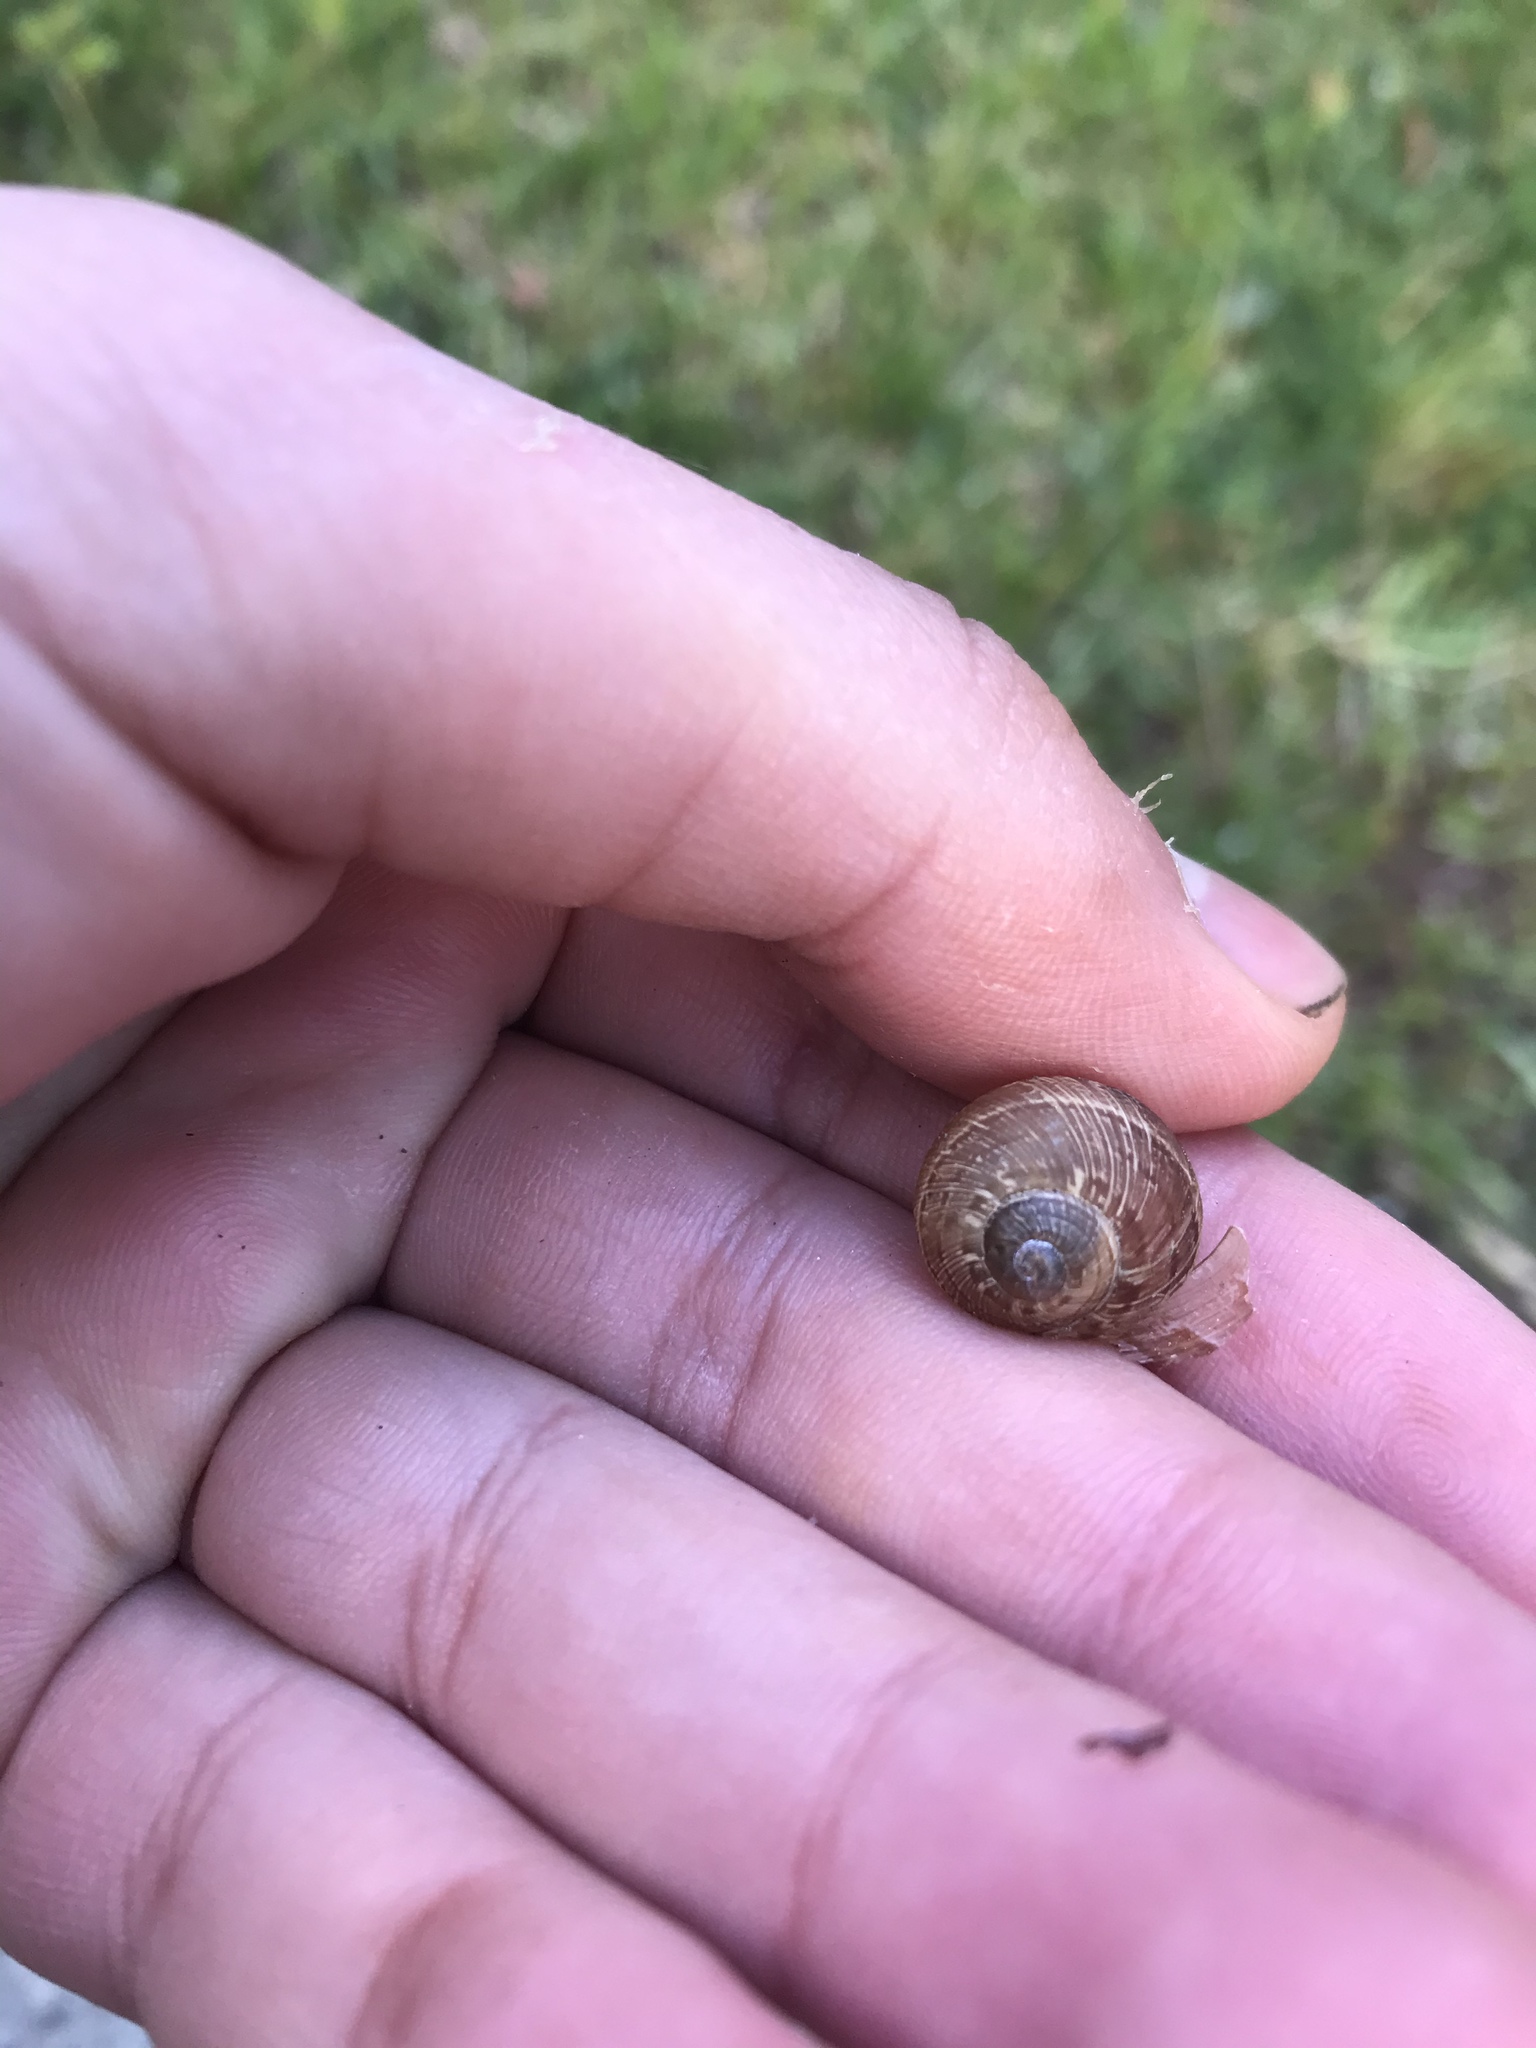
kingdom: Animalia
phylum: Mollusca
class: Gastropoda
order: Stylommatophora
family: Helicidae
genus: Cornu
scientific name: Cornu aspersum
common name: Brown garden snail
